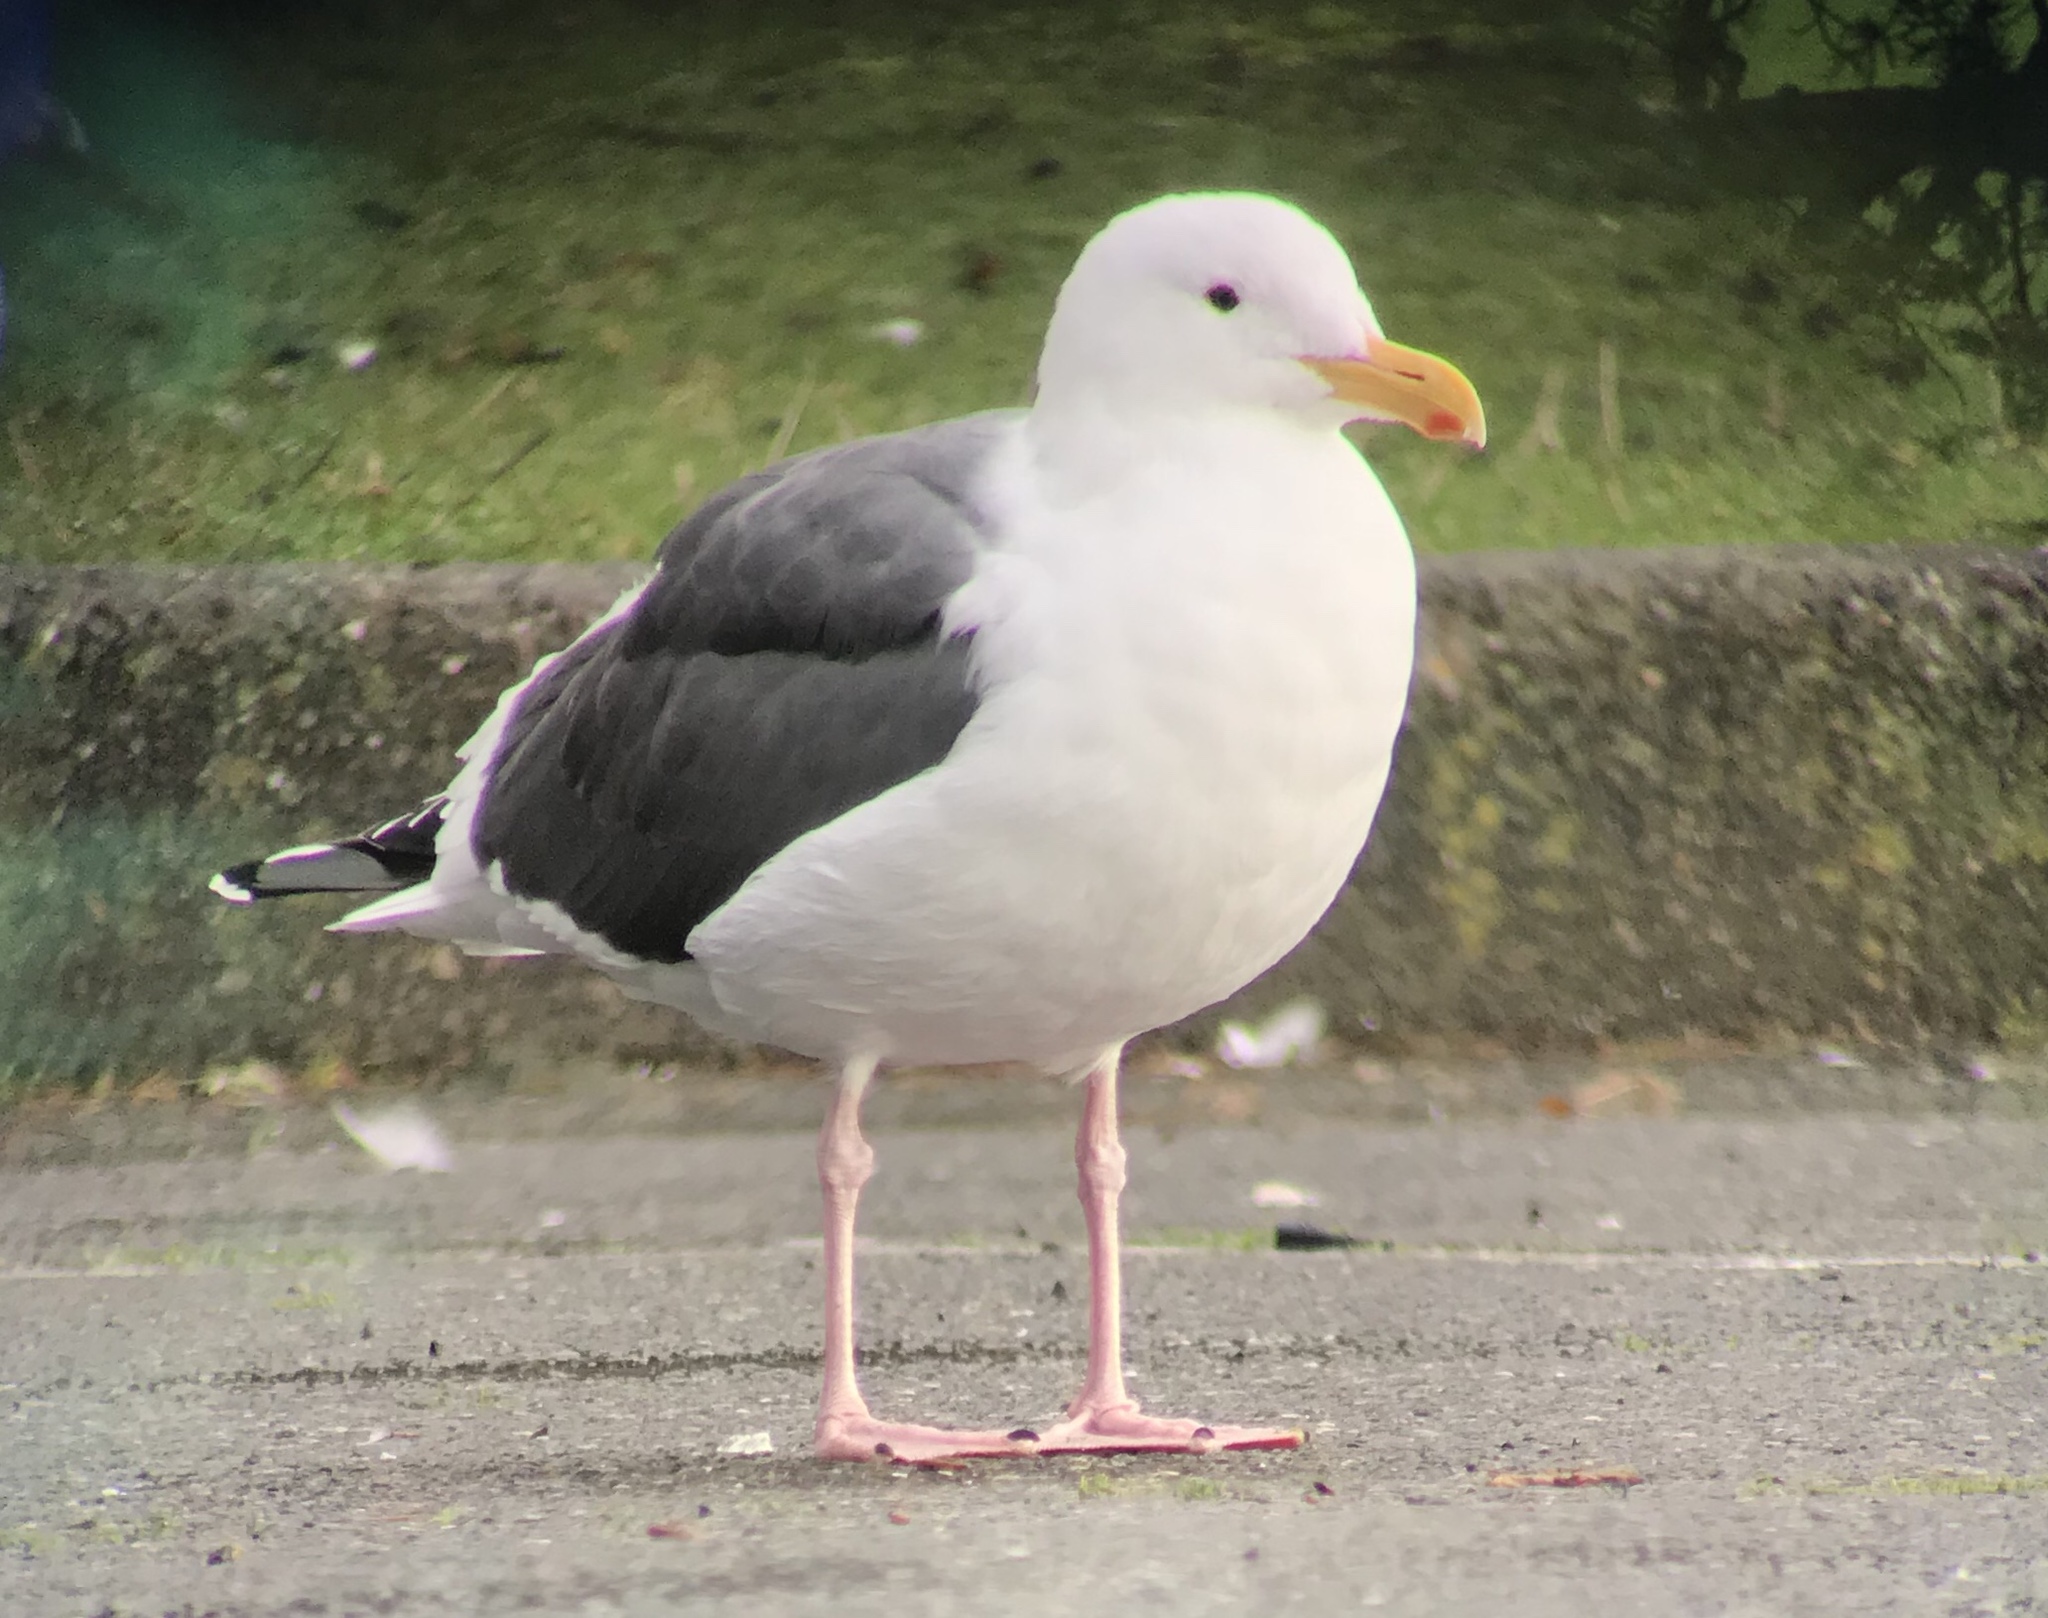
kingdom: Animalia
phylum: Chordata
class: Aves
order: Charadriiformes
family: Laridae
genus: Larus
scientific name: Larus occidentalis
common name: Western gull
